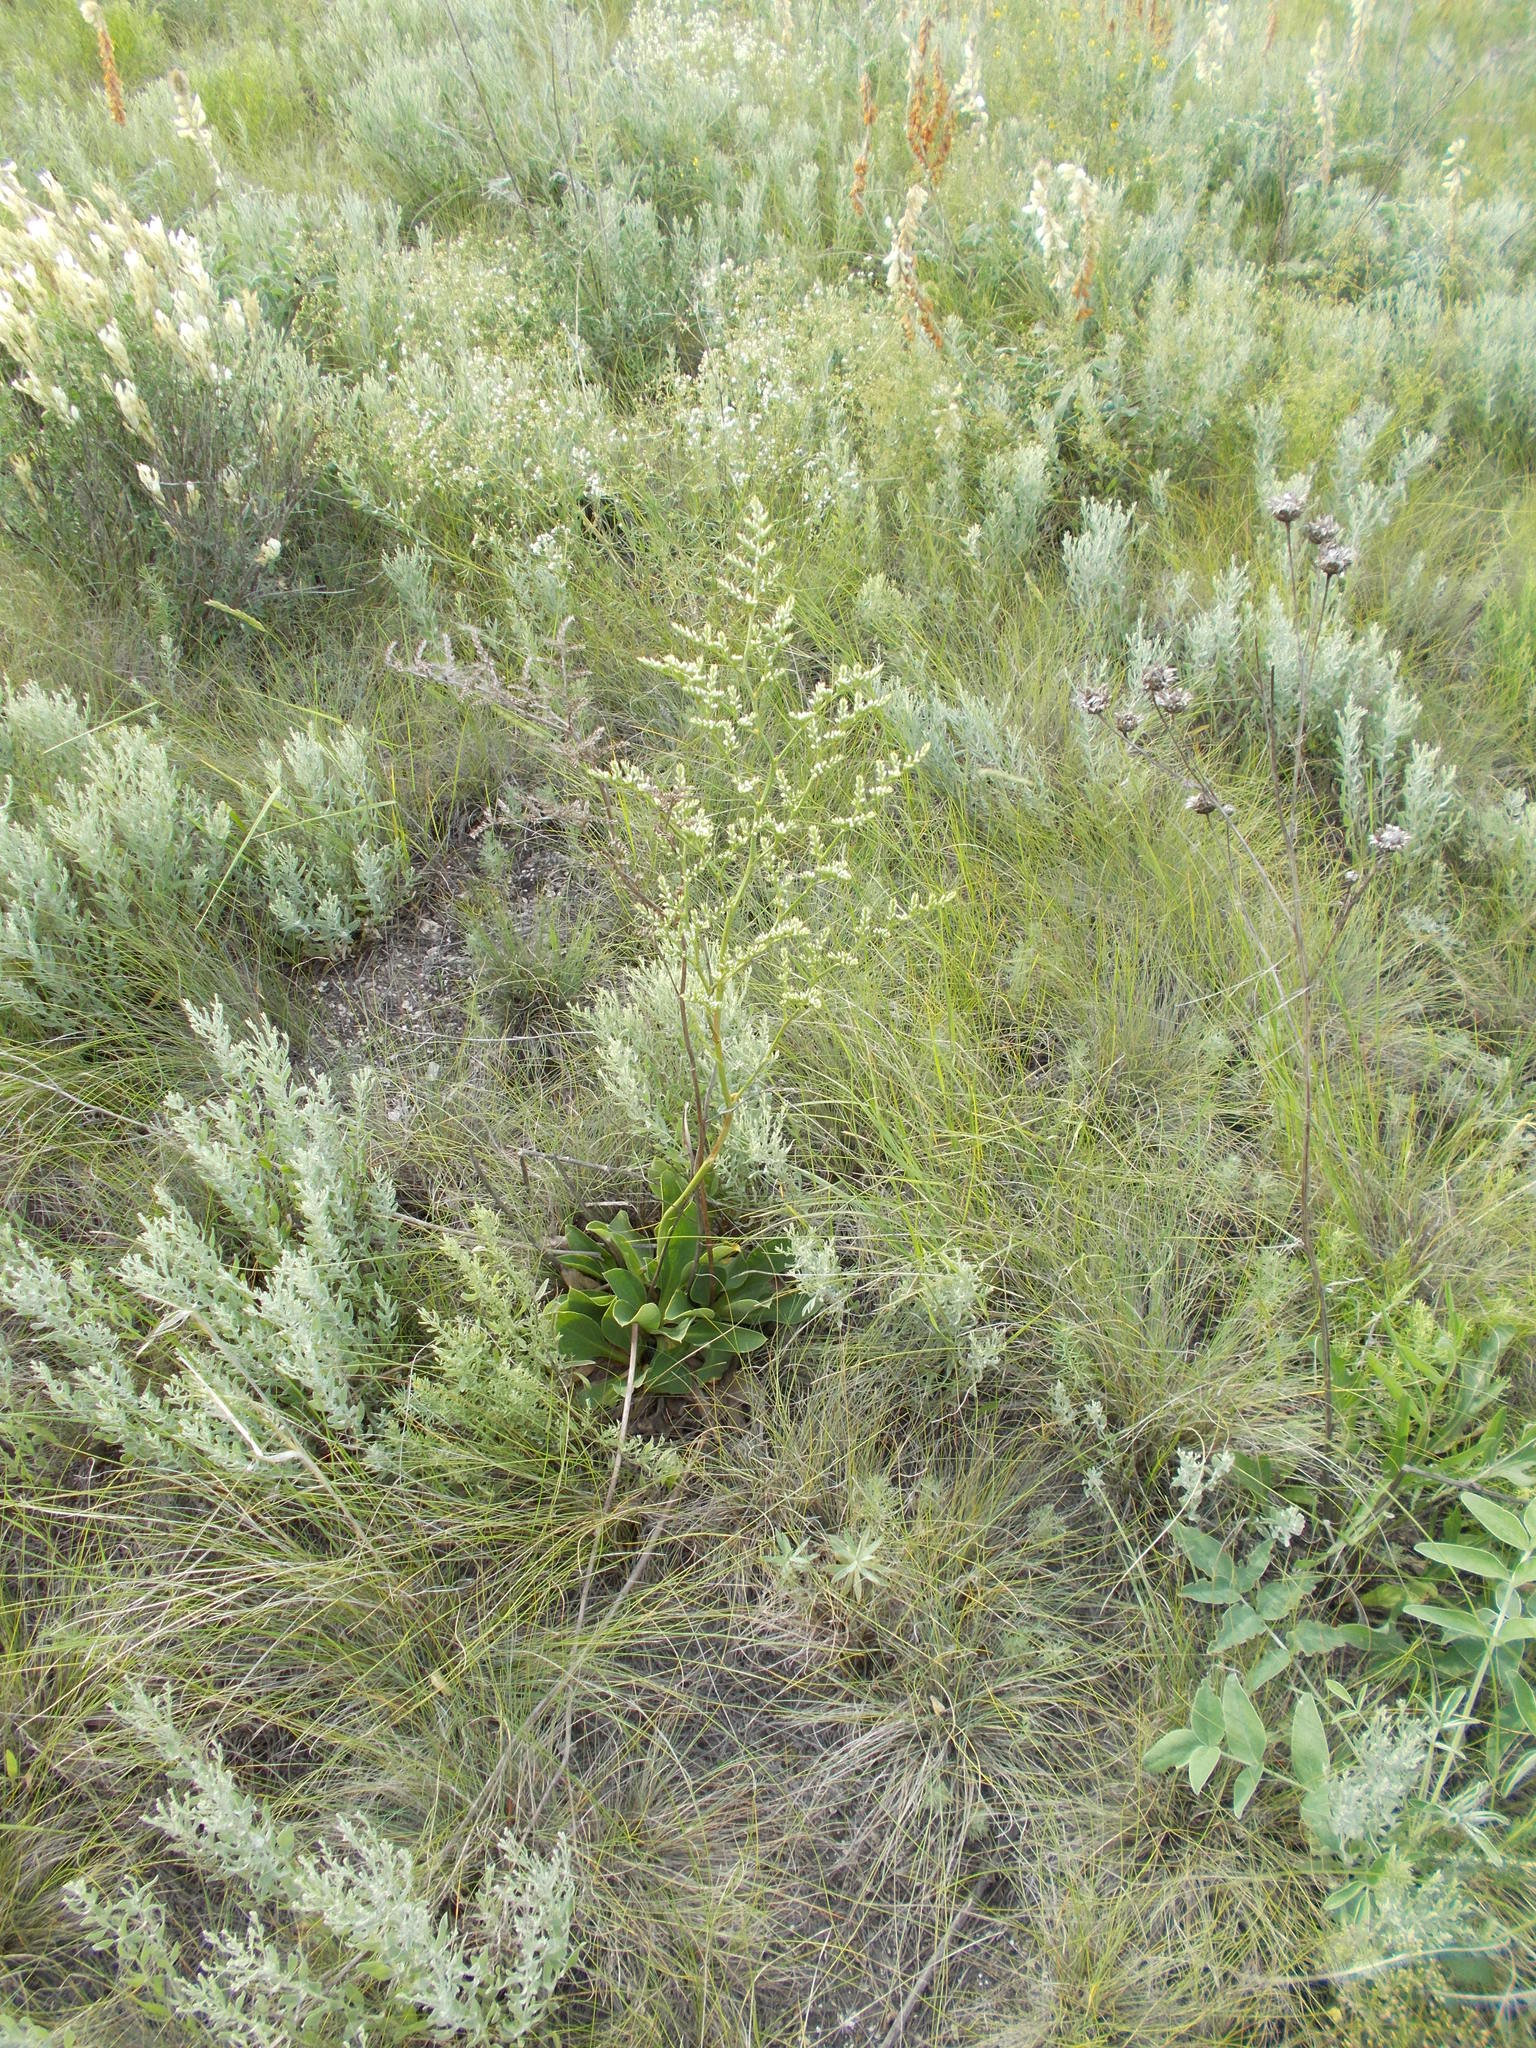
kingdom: Plantae
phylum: Tracheophyta
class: Magnoliopsida
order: Caryophyllales
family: Plumbaginaceae
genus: Goniolimon
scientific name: Goniolimon elatum
